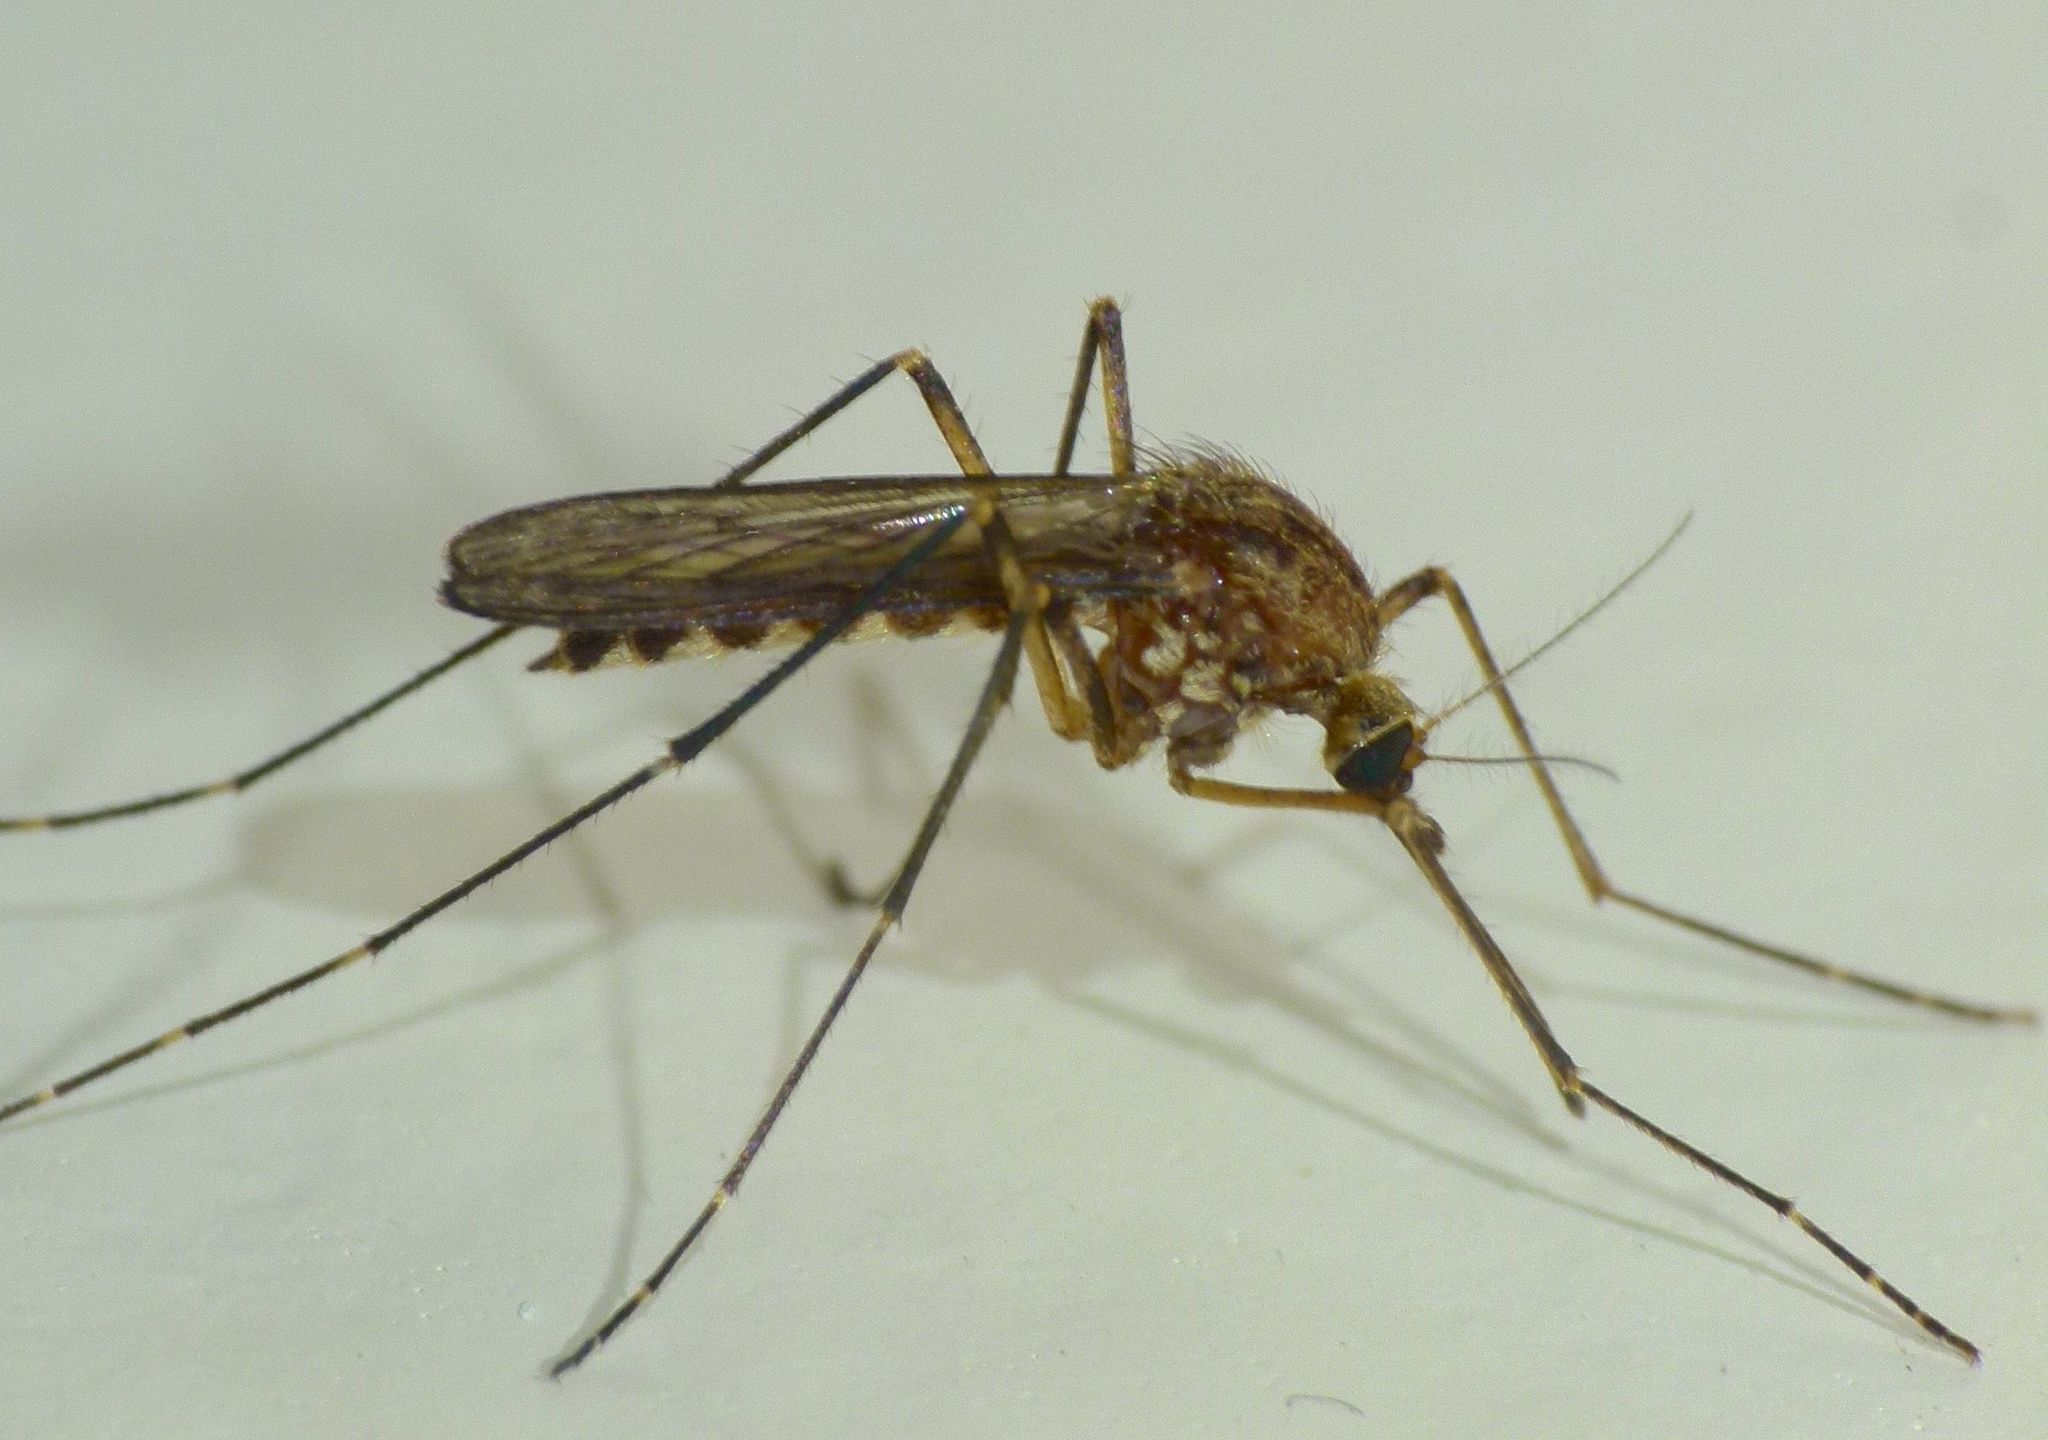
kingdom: Animalia
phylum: Arthropoda
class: Insecta
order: Diptera
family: Culicidae
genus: Aedes
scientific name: Aedes antipodeus
